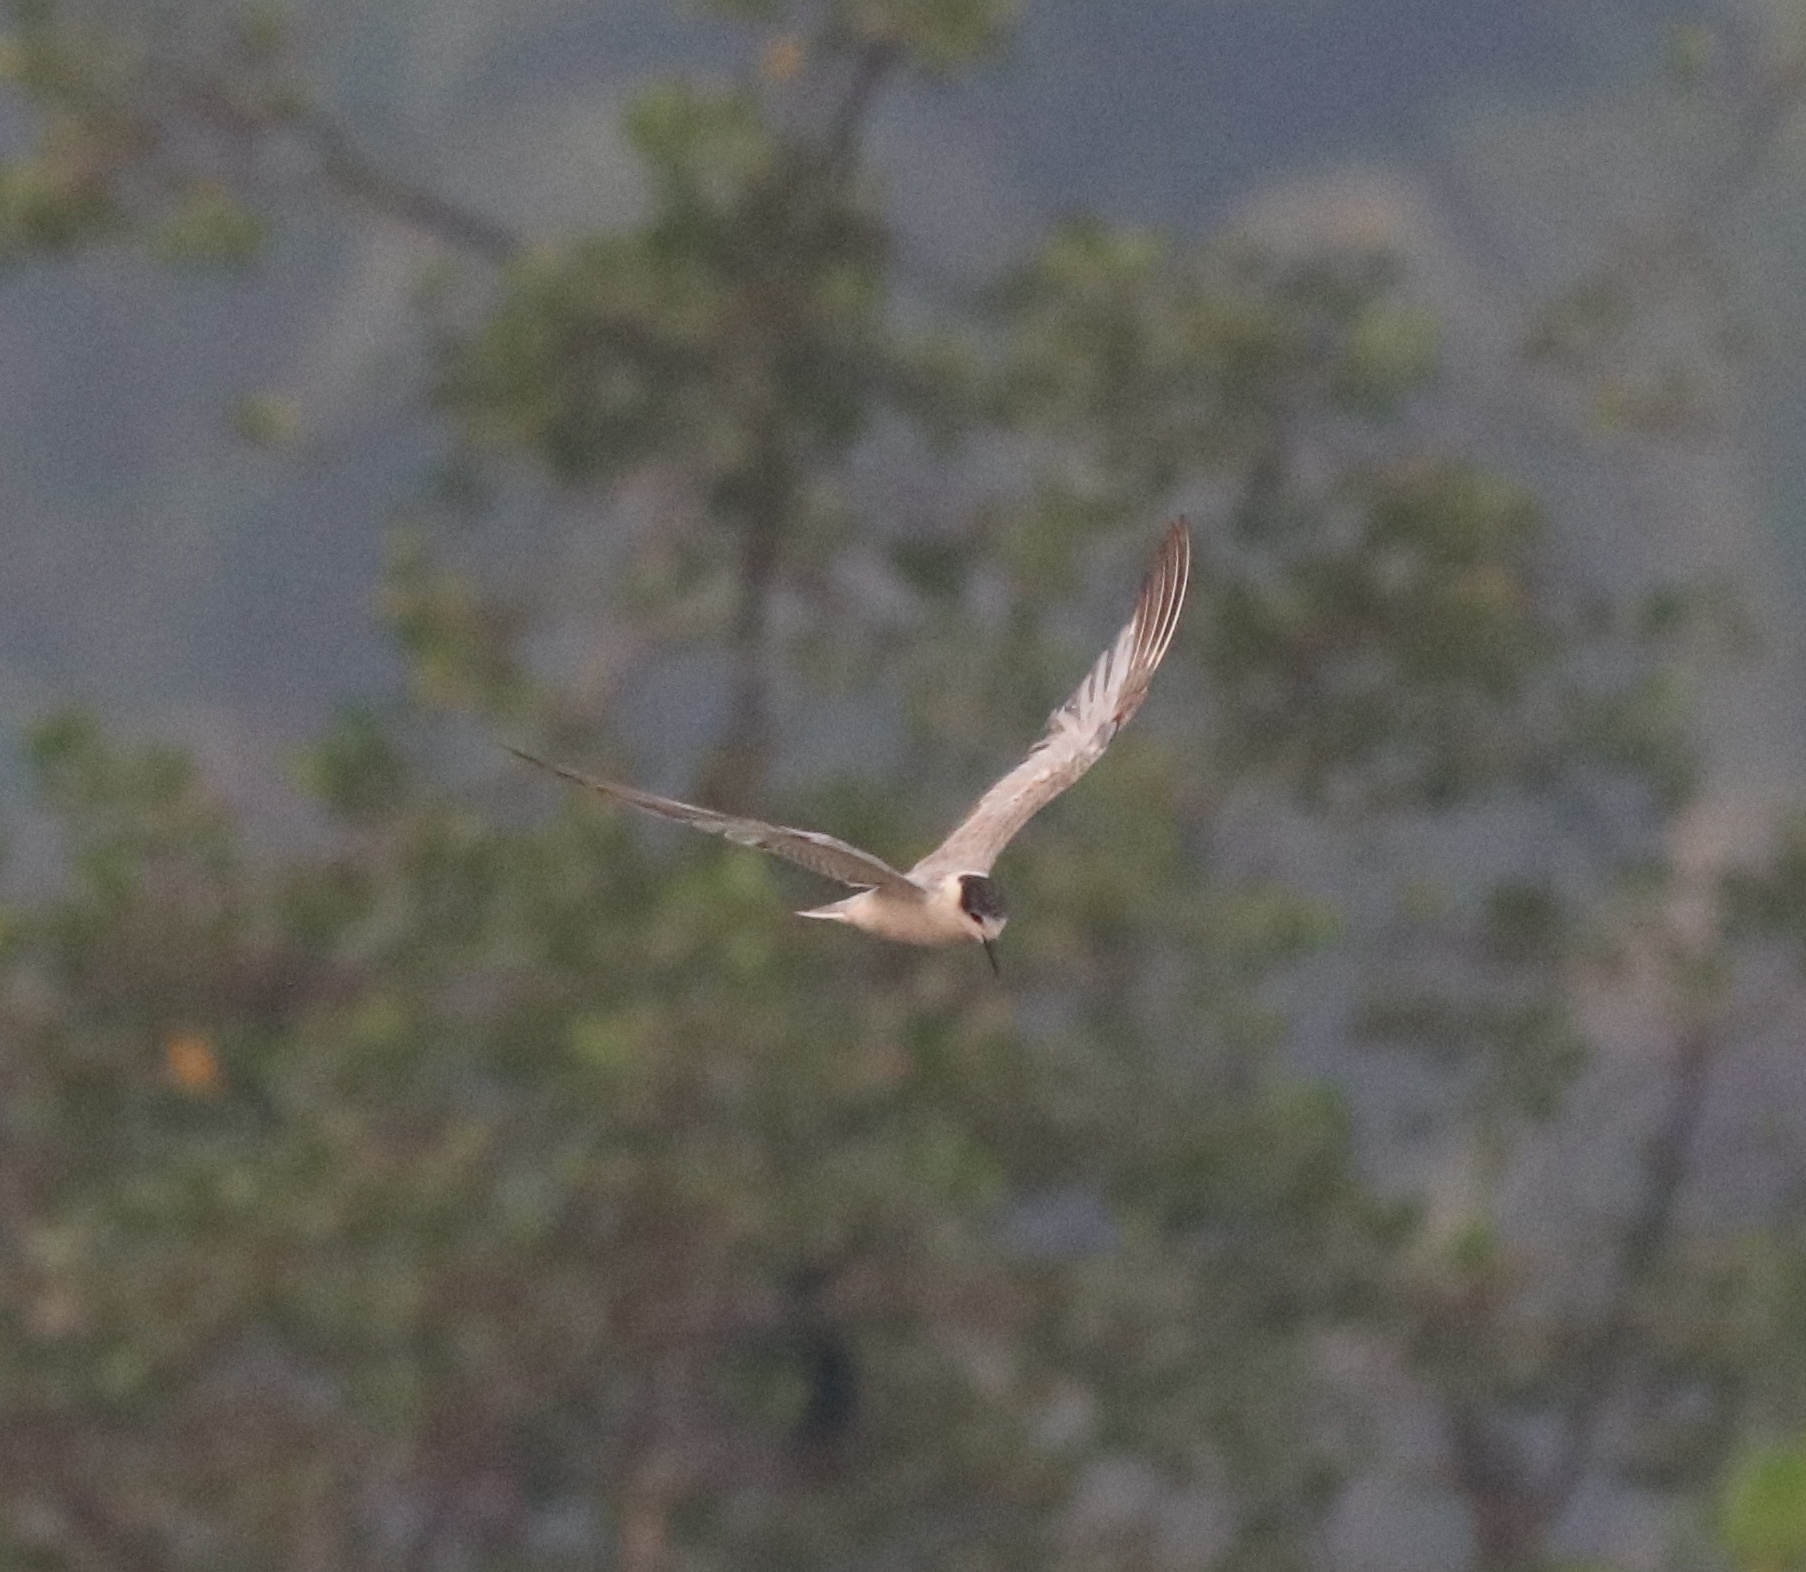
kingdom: Animalia
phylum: Chordata
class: Aves
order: Charadriiformes
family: Laridae
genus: Chlidonias
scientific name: Chlidonias hybrida
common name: Whiskered tern
